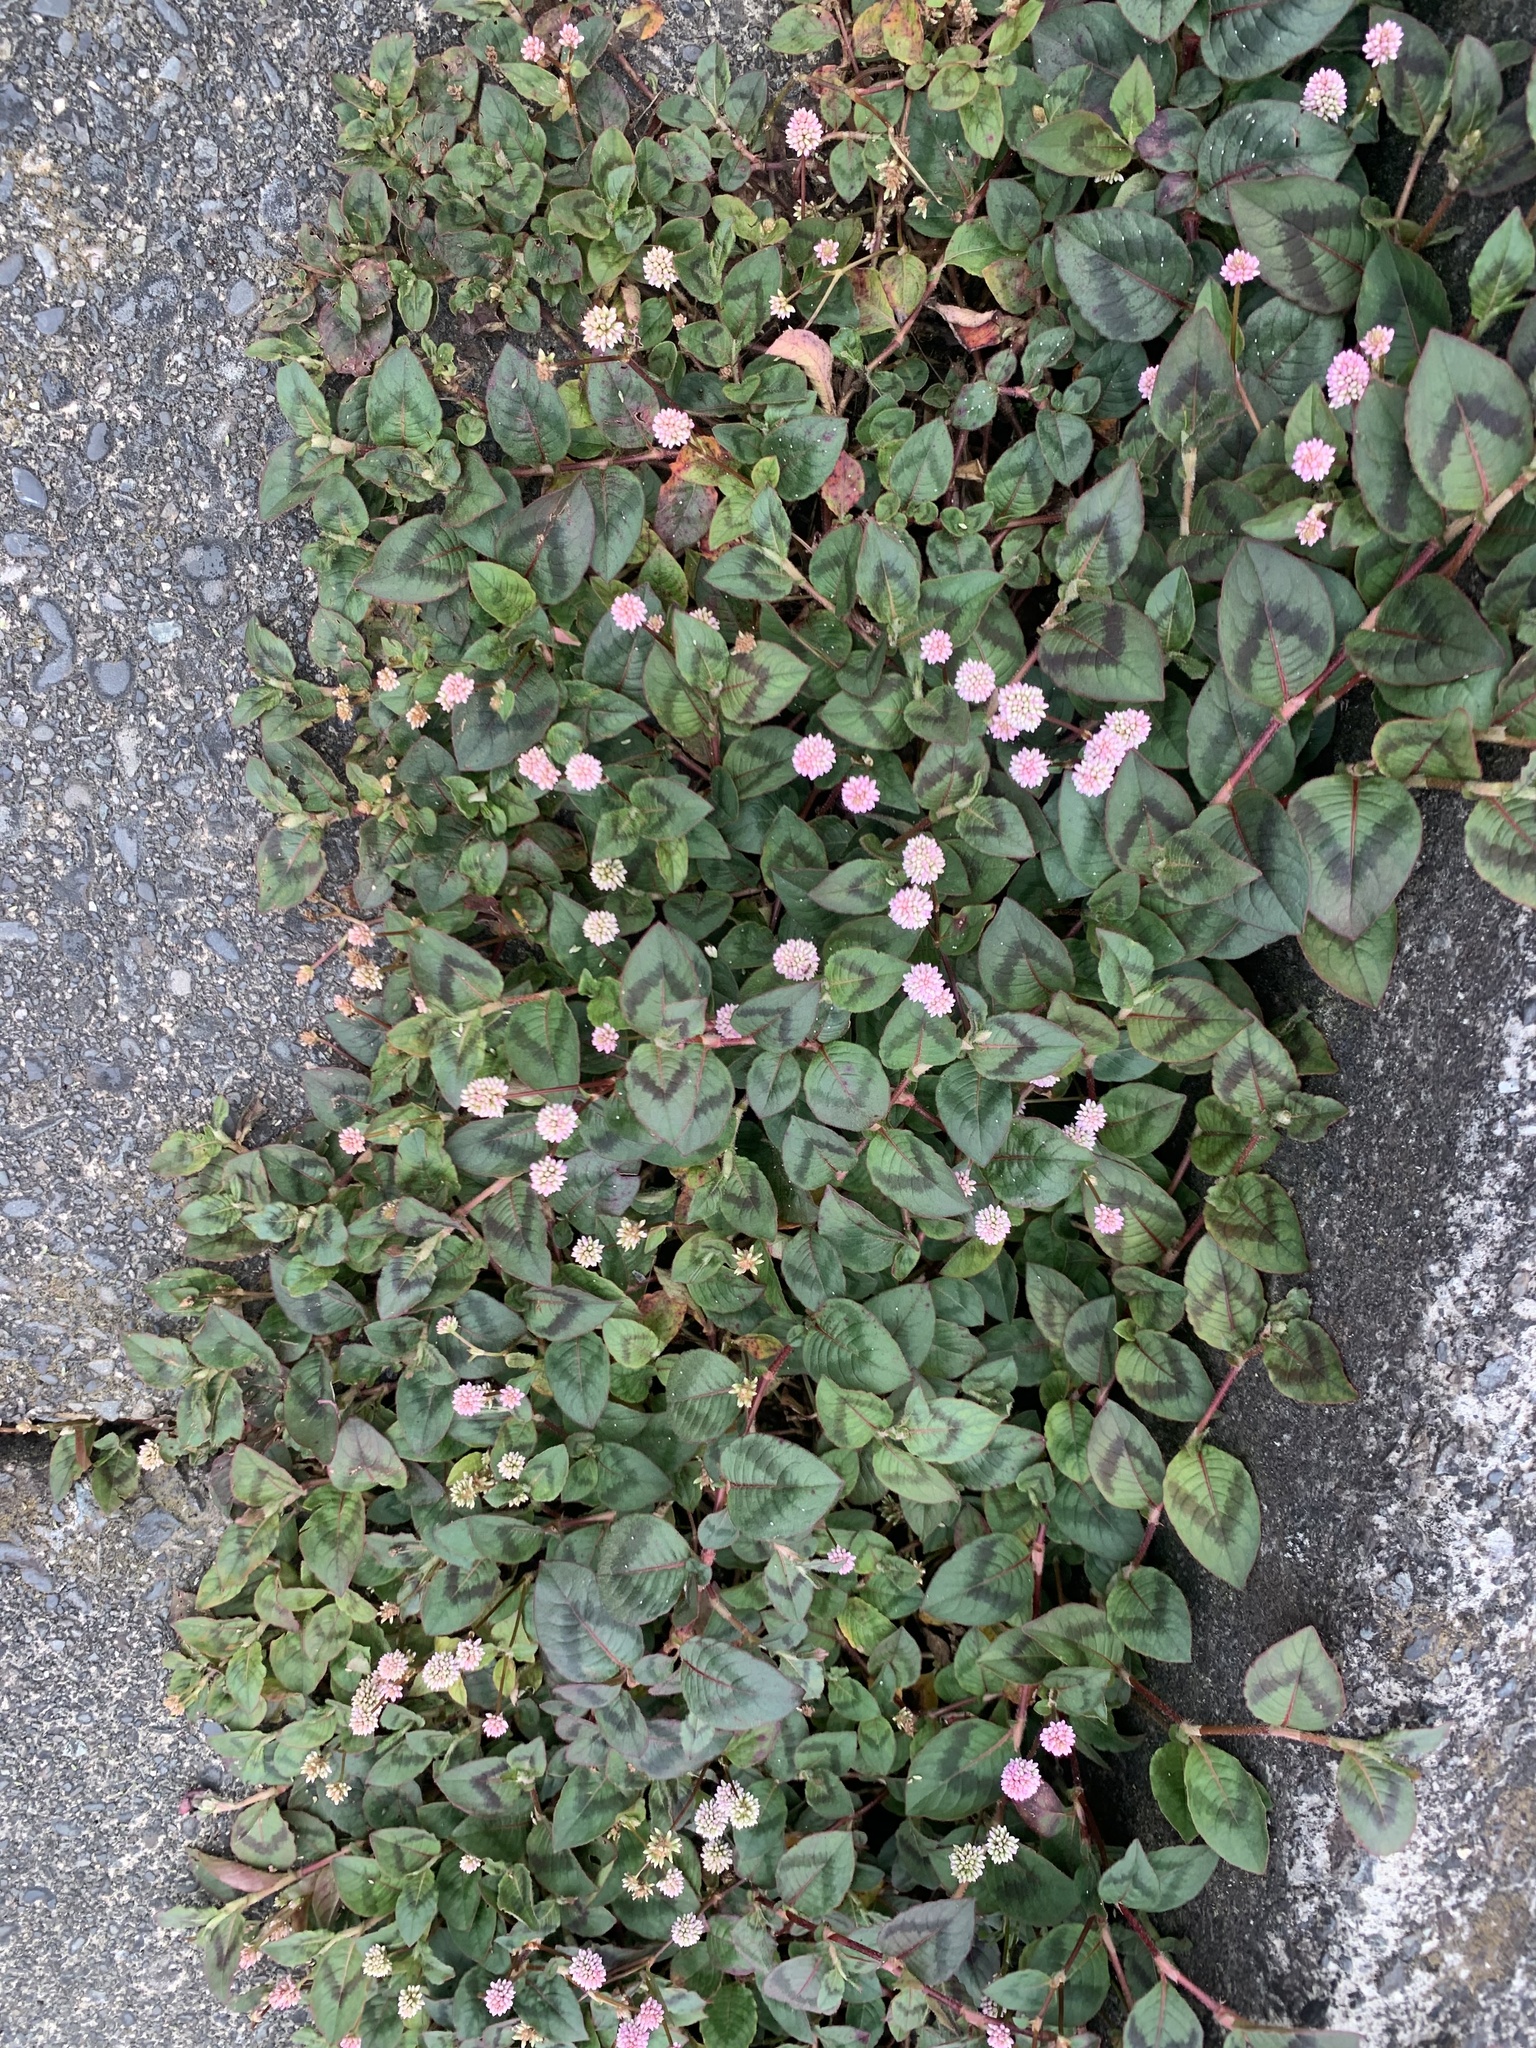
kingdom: Plantae
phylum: Tracheophyta
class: Magnoliopsida
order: Caryophyllales
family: Polygonaceae
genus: Persicaria
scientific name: Persicaria capitata
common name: Pinkhead smartweed
